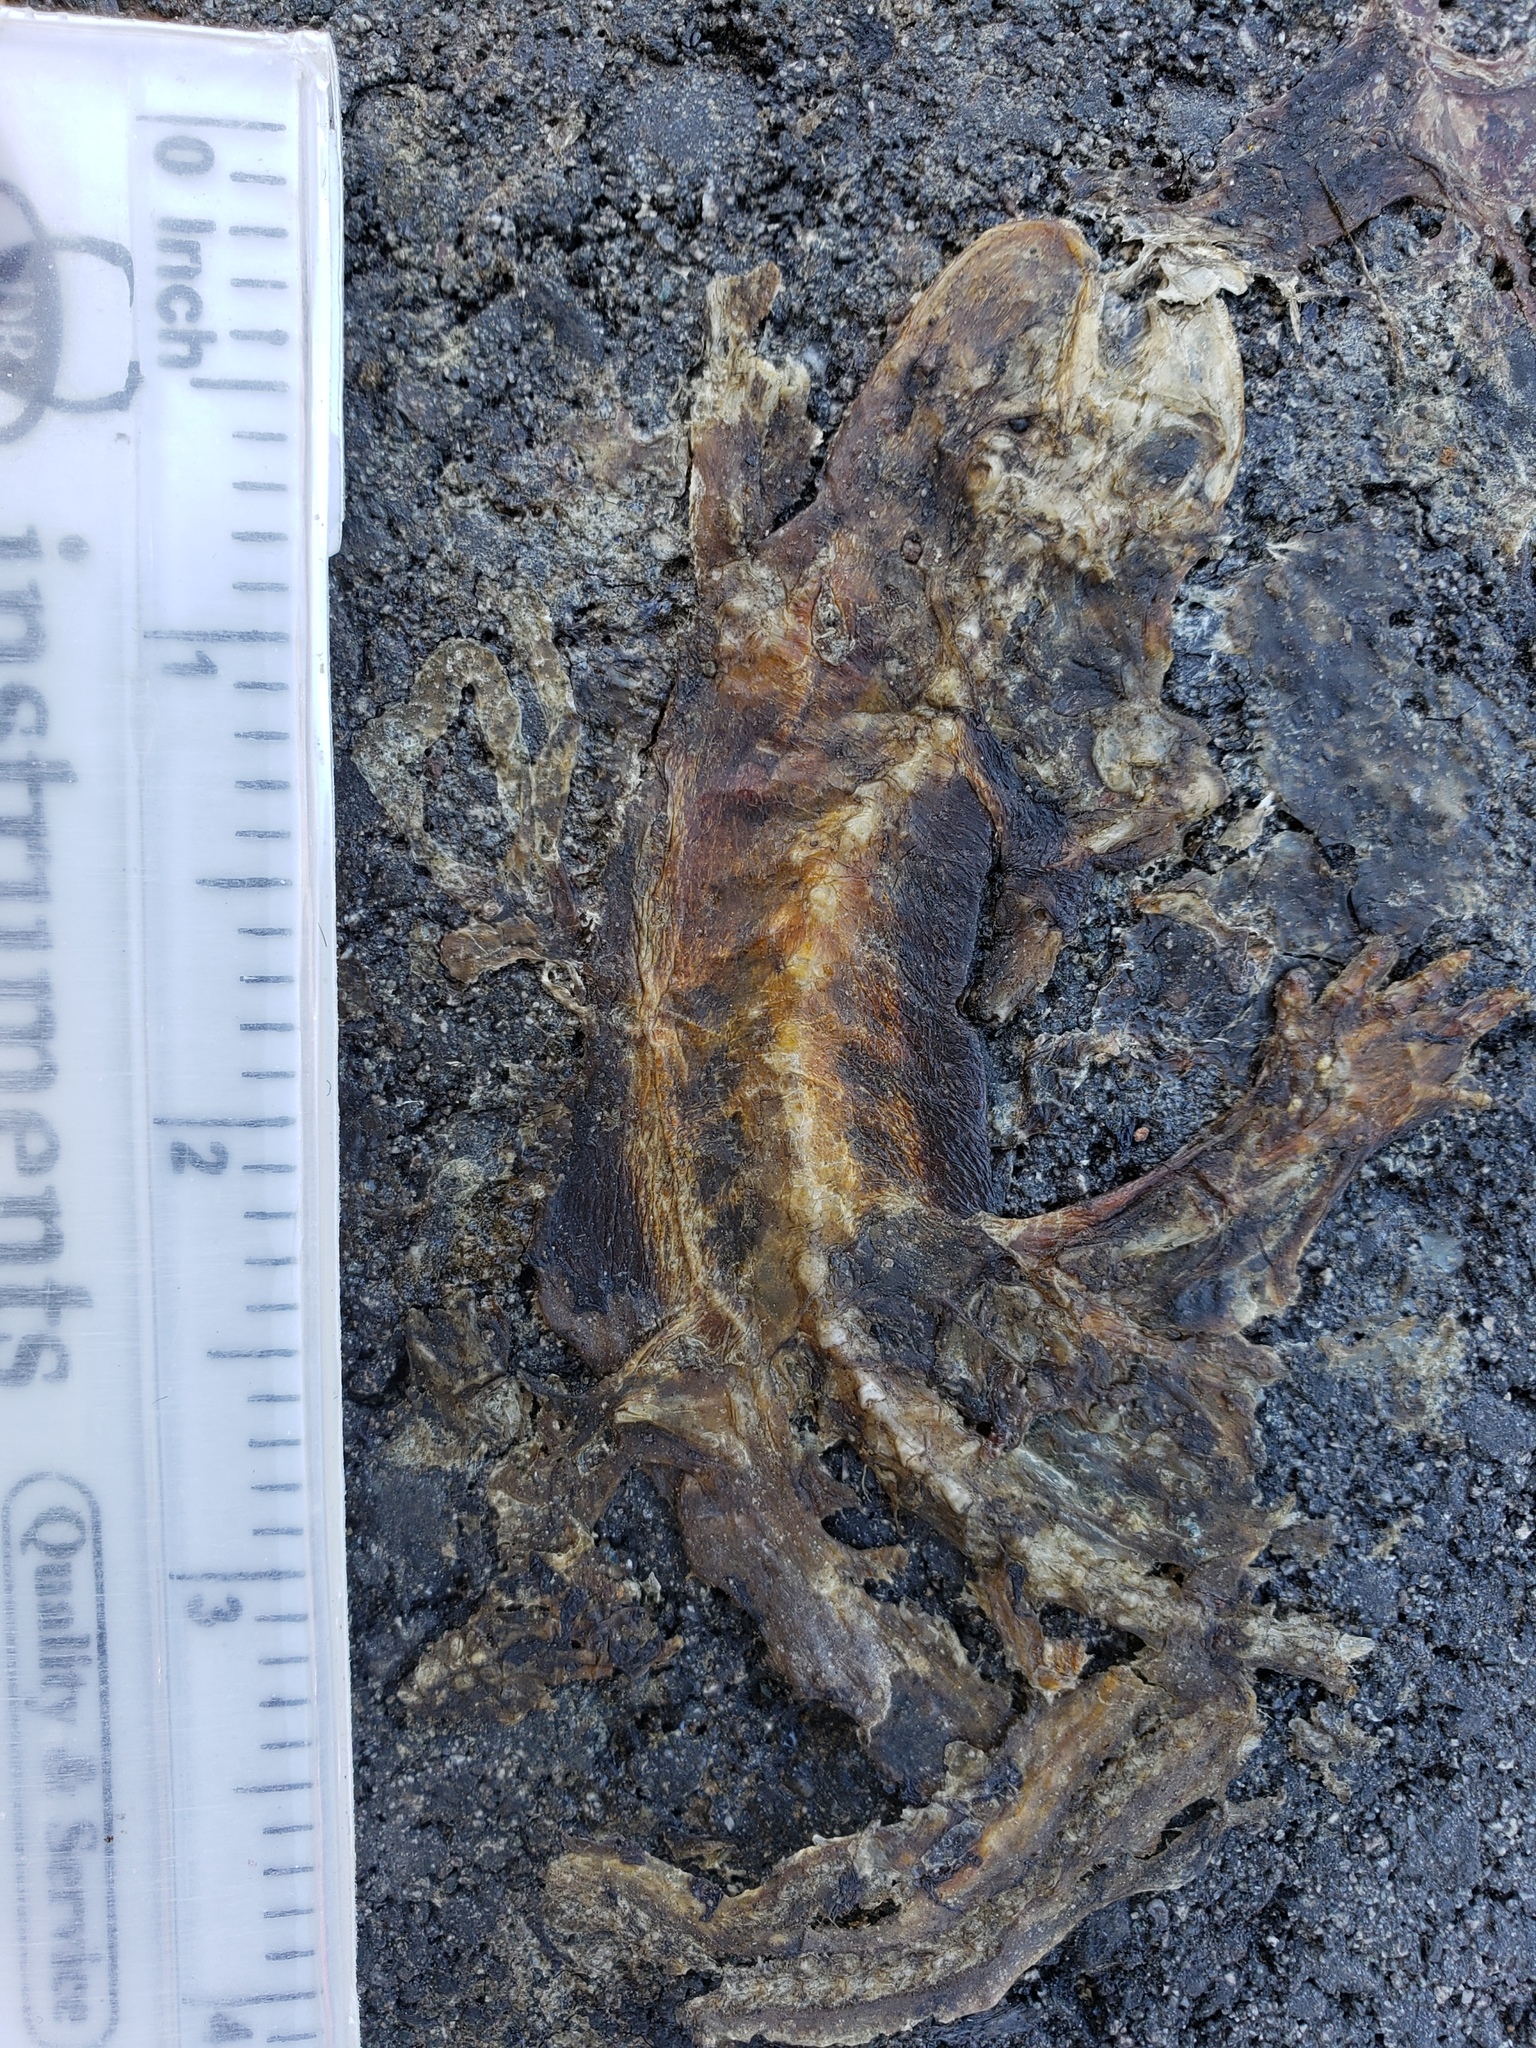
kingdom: Animalia
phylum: Chordata
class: Amphibia
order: Caudata
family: Salamandridae
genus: Taricha
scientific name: Taricha
